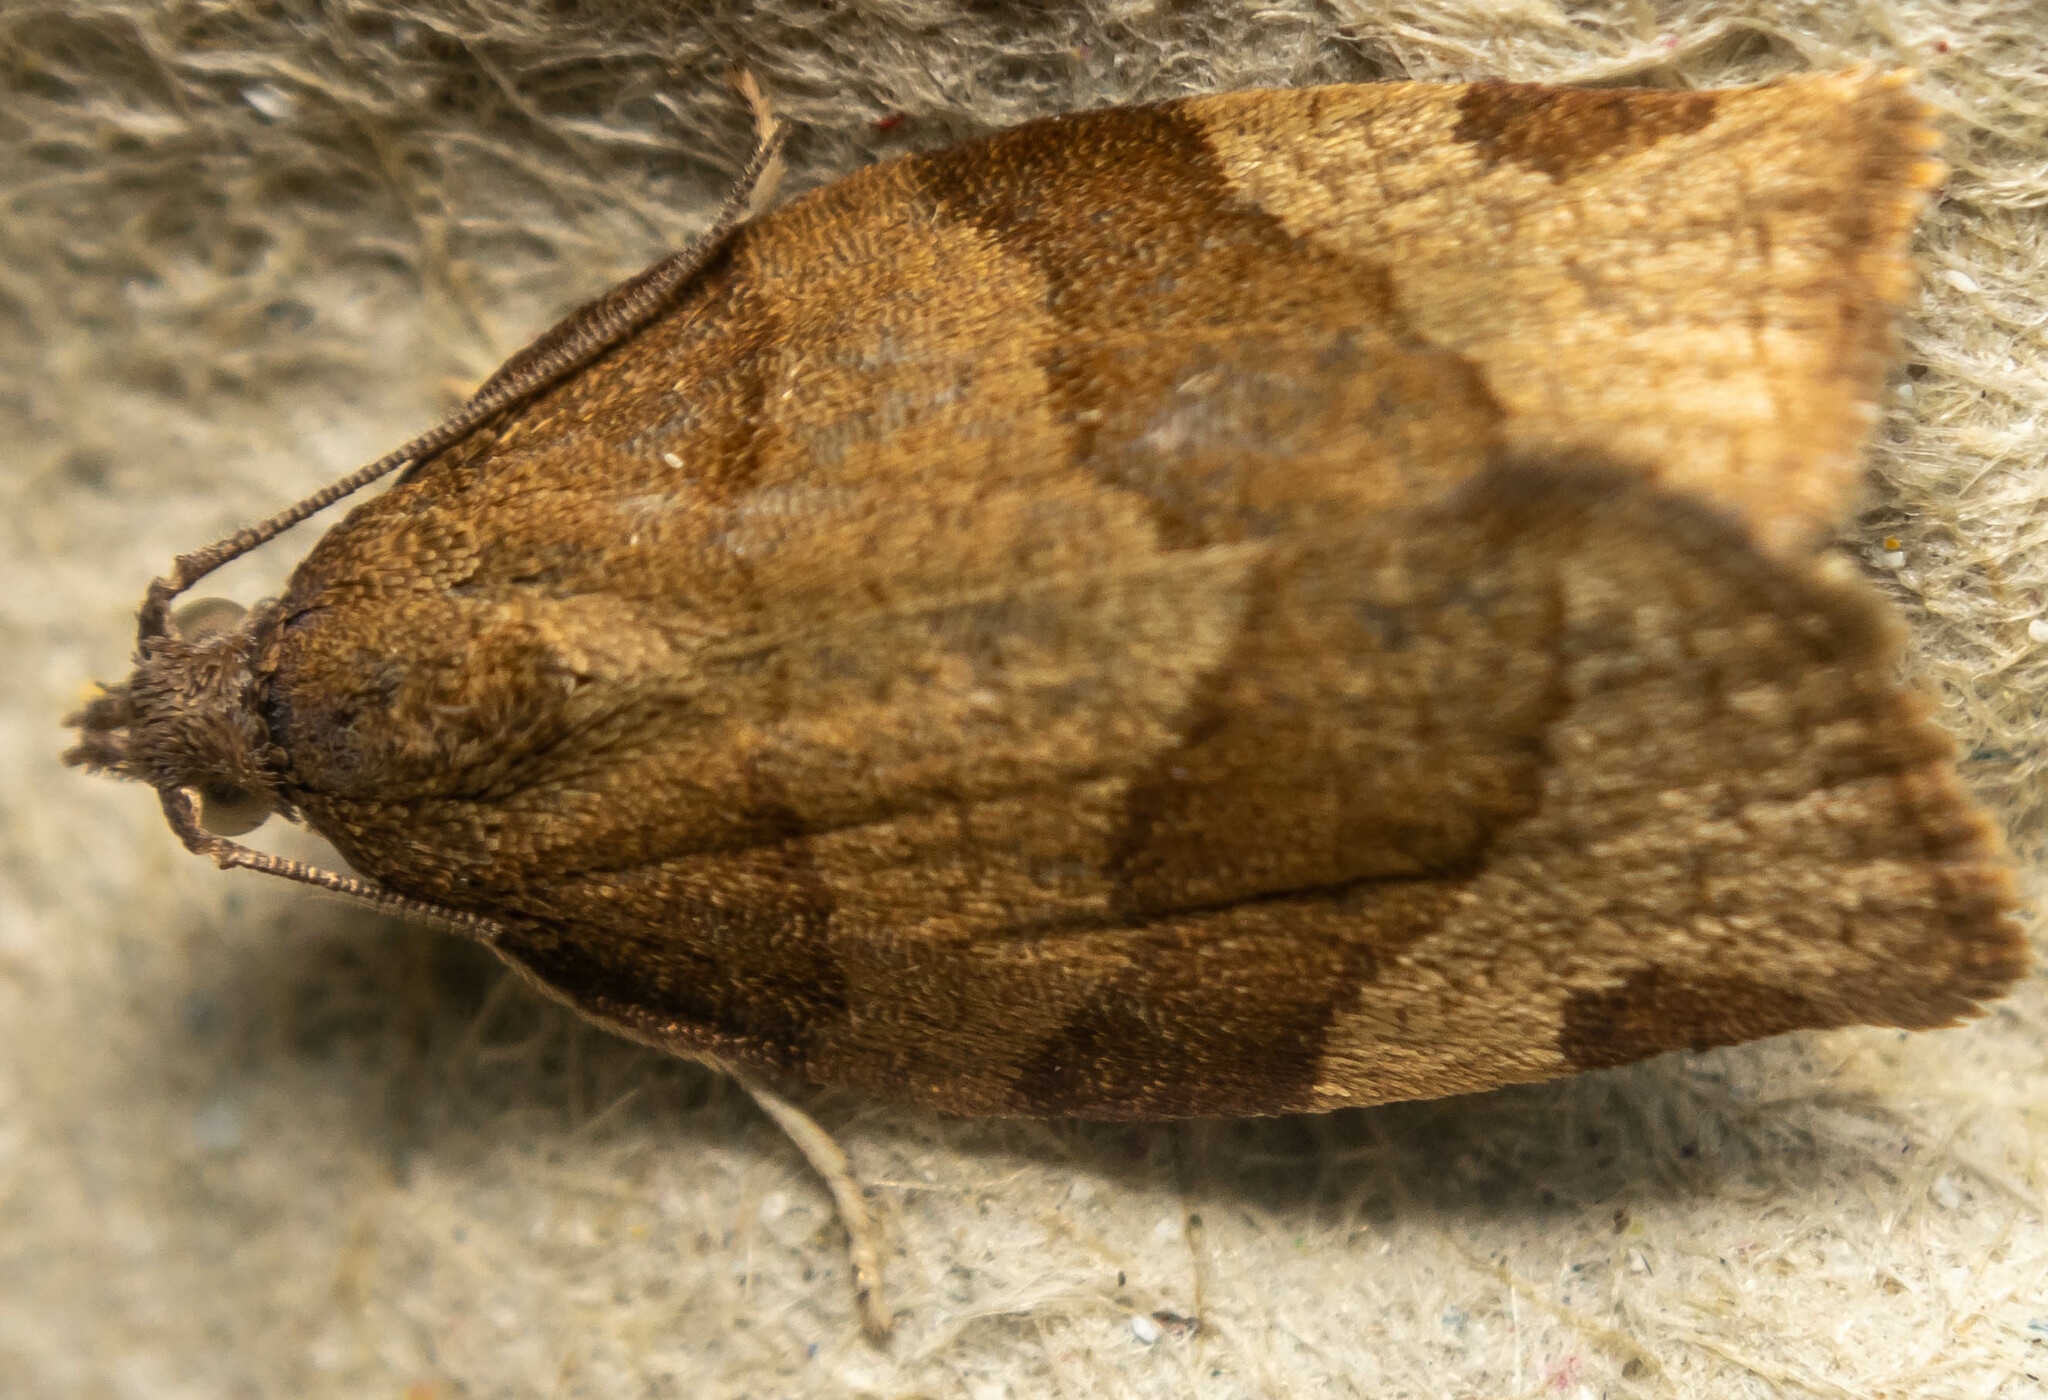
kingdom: Animalia
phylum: Arthropoda
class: Insecta
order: Lepidoptera
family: Tortricidae
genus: Pandemis
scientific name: Pandemis cerasana
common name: Barred fruit-tree tortrix
